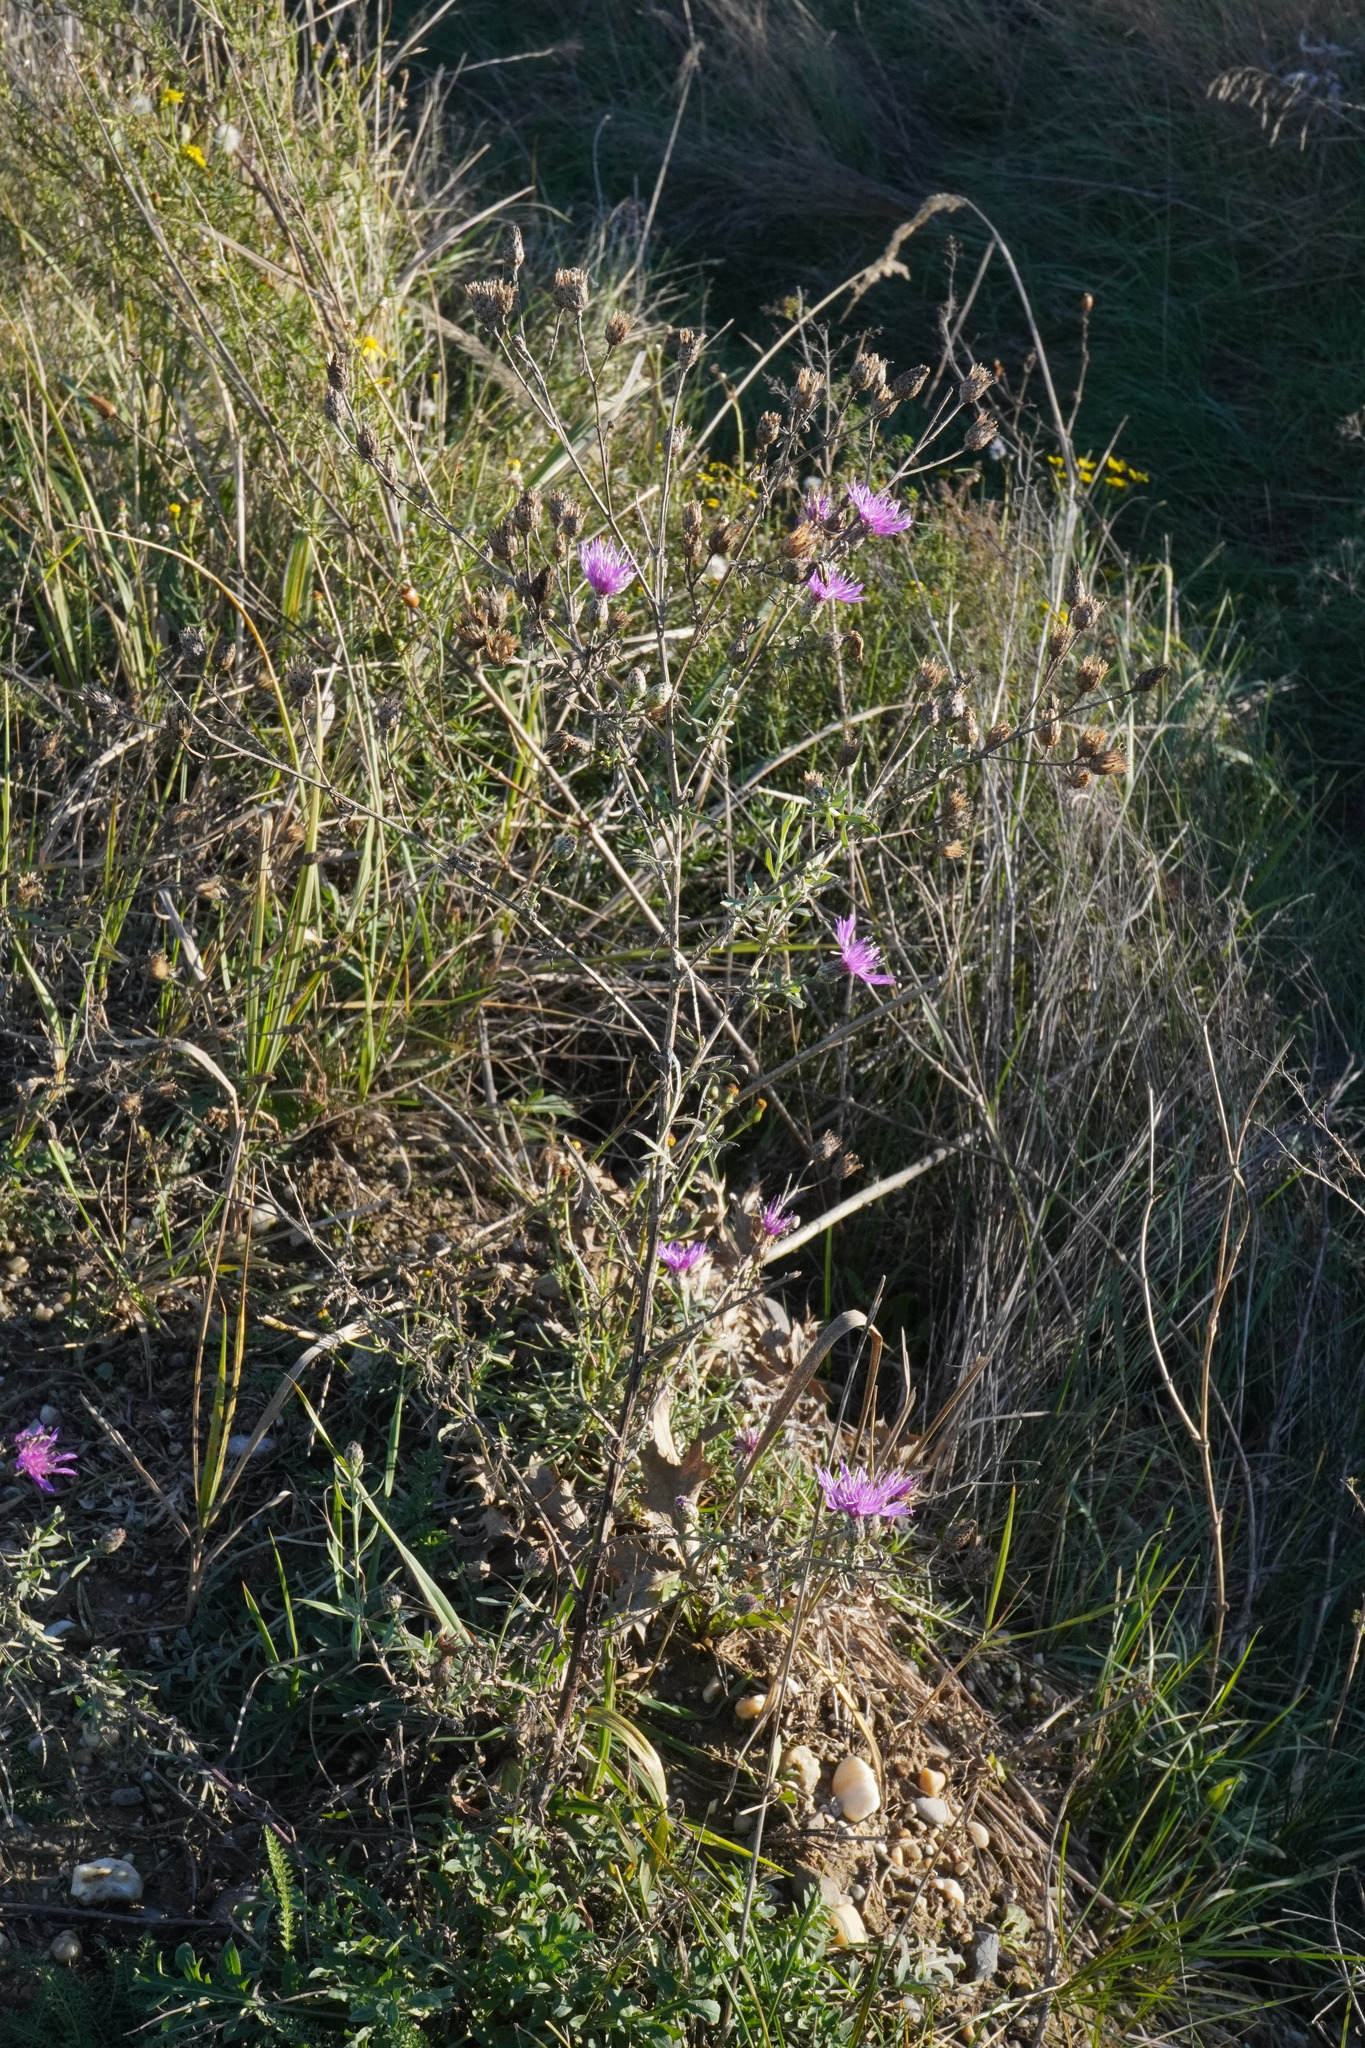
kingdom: Plantae
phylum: Tracheophyta
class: Magnoliopsida
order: Asterales
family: Asteraceae
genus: Centaurea
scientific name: Centaurea stoebe
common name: Spotted knapweed
